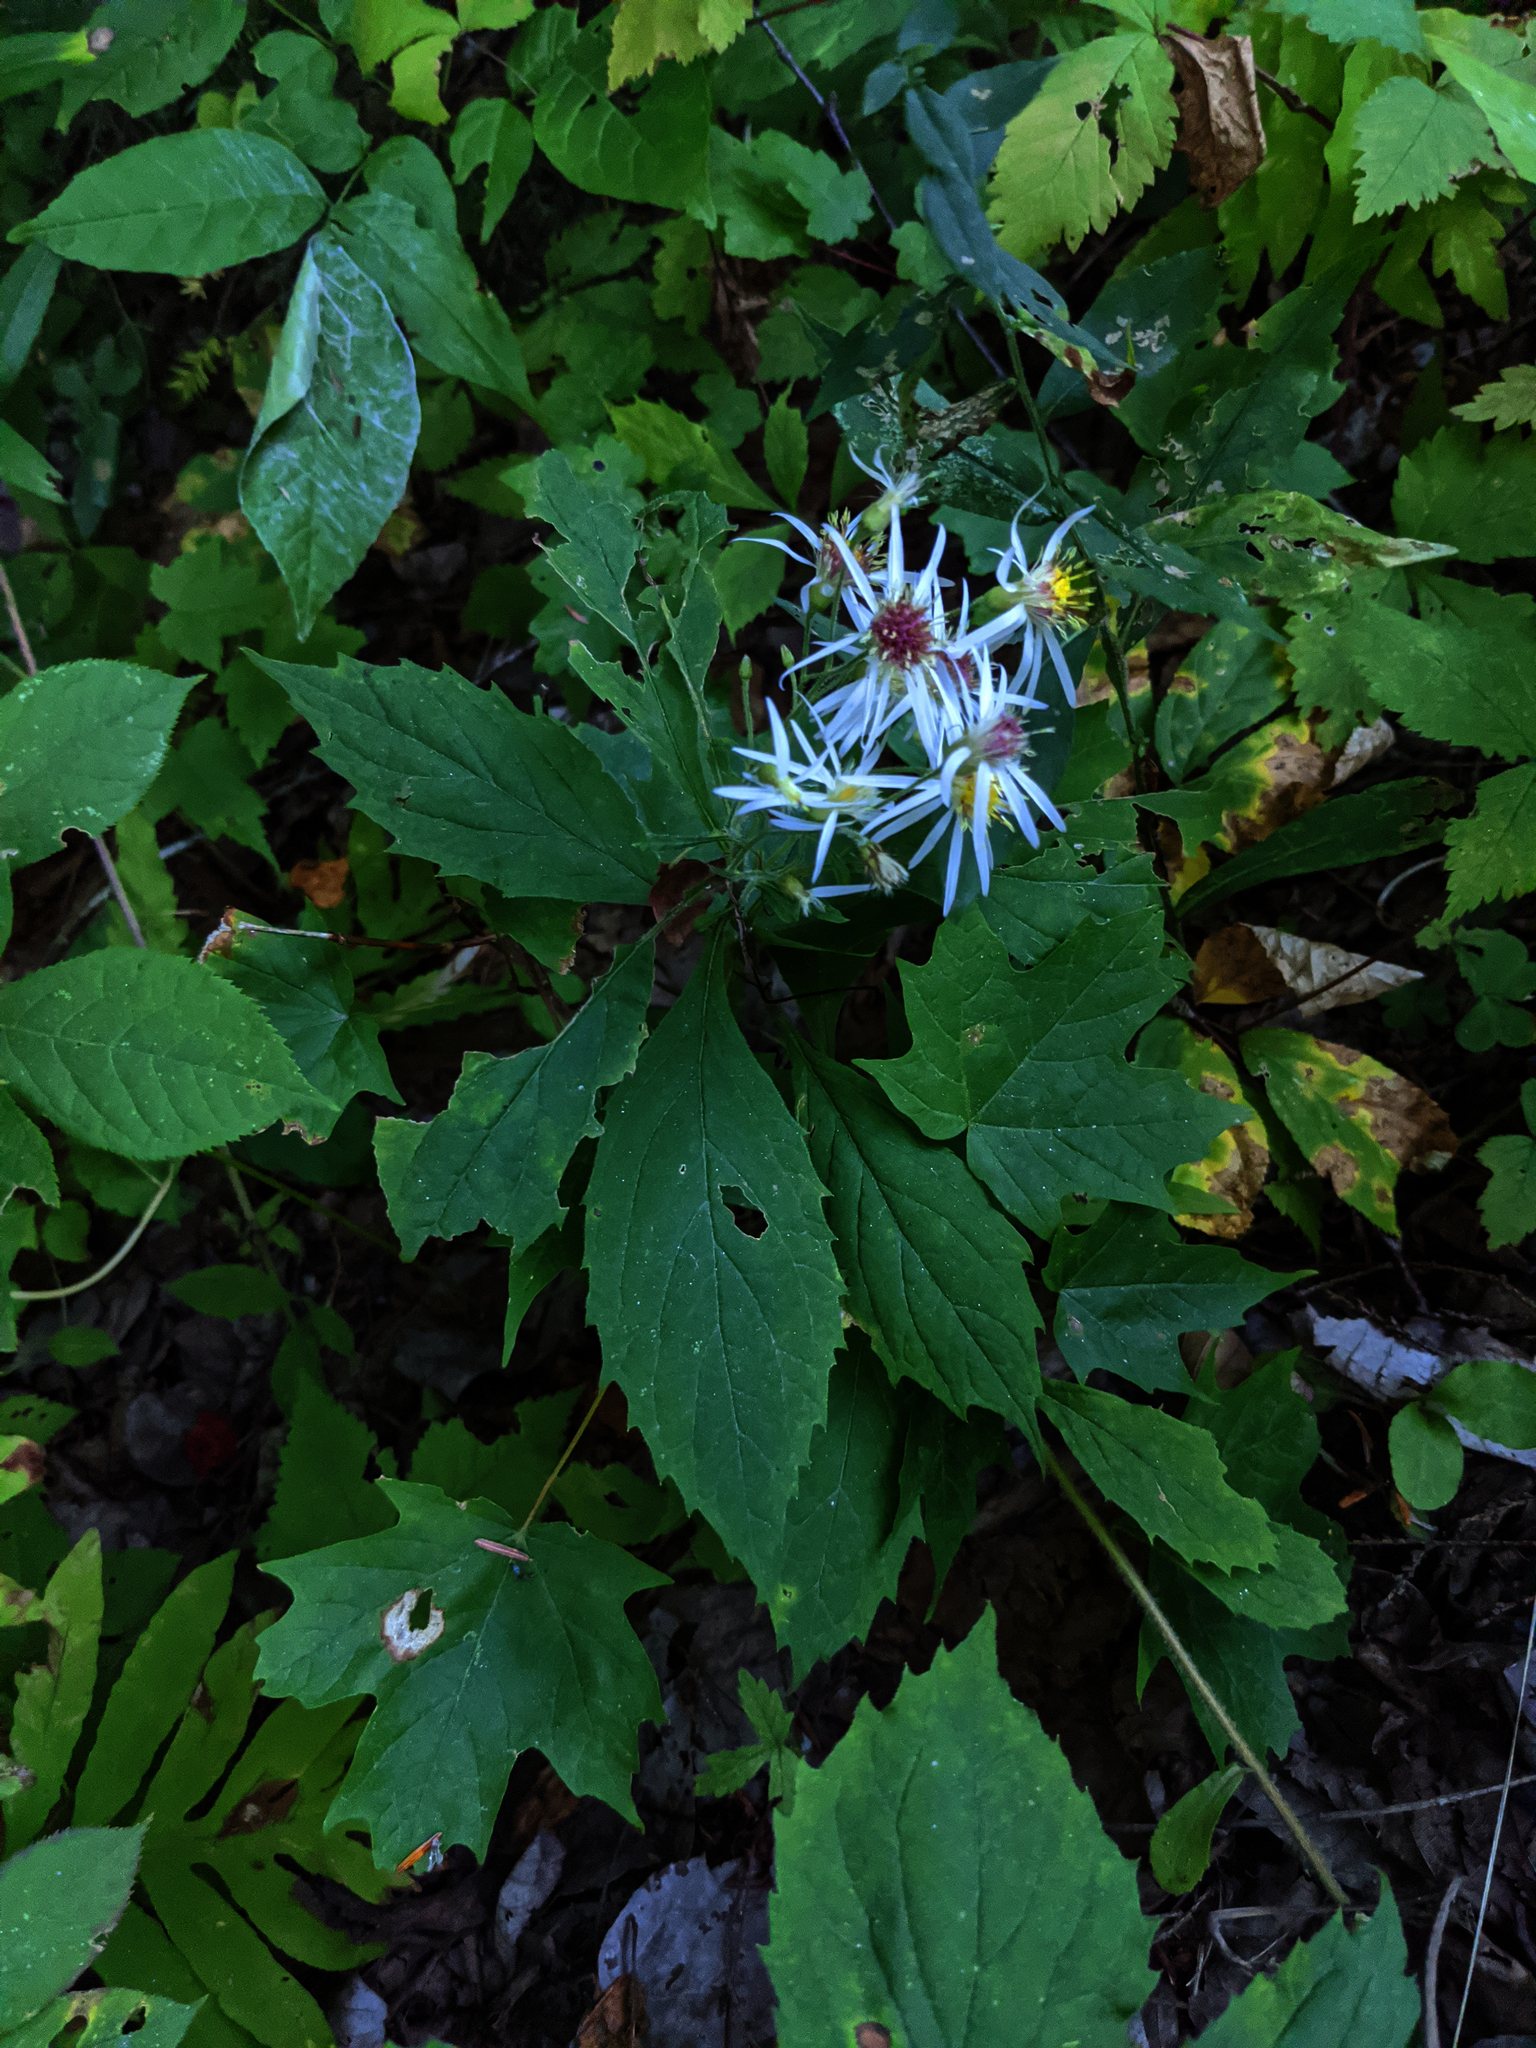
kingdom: Plantae
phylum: Tracheophyta
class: Magnoliopsida
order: Asterales
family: Asteraceae
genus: Oclemena
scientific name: Oclemena acuminata
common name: Mountain aster
